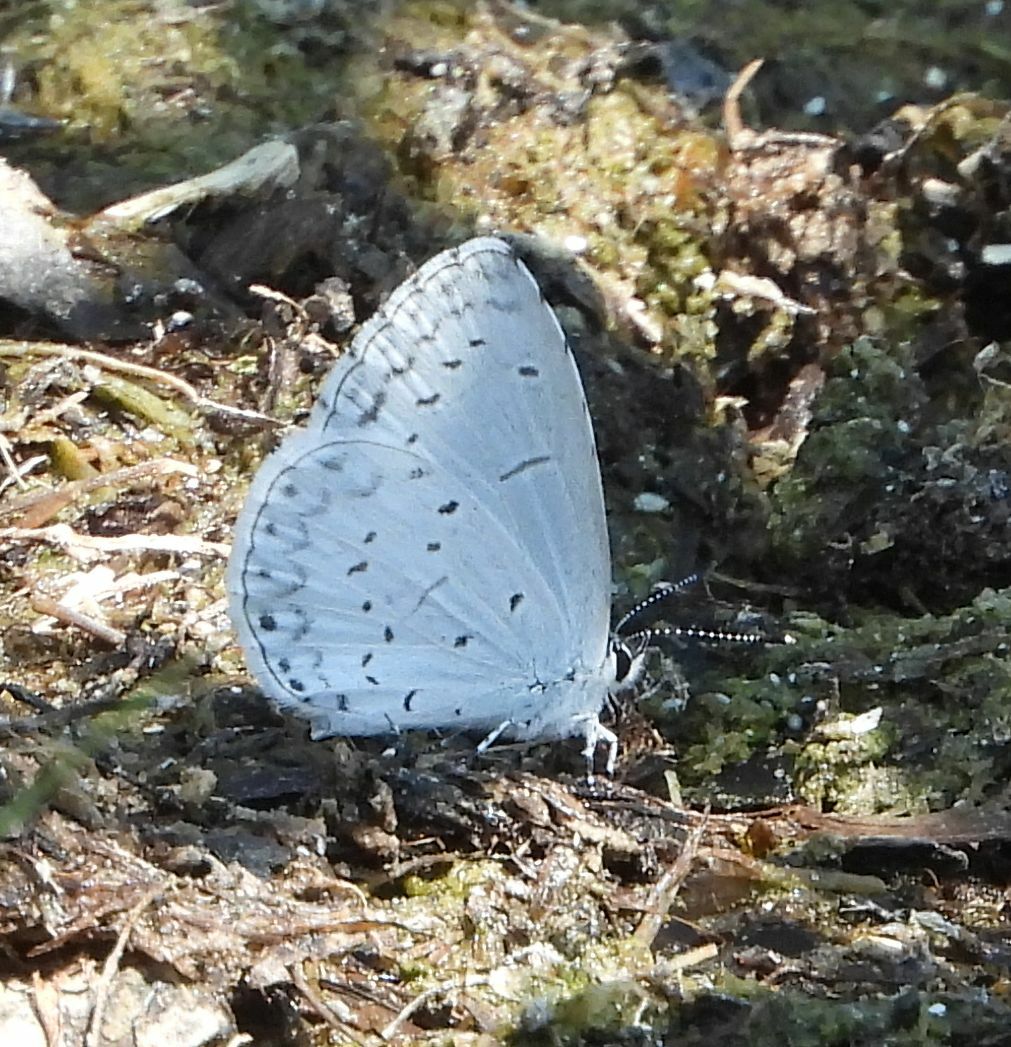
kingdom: Animalia
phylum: Arthropoda
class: Insecta
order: Lepidoptera
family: Lycaenidae
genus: Cyaniris
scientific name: Cyaniris neglecta
